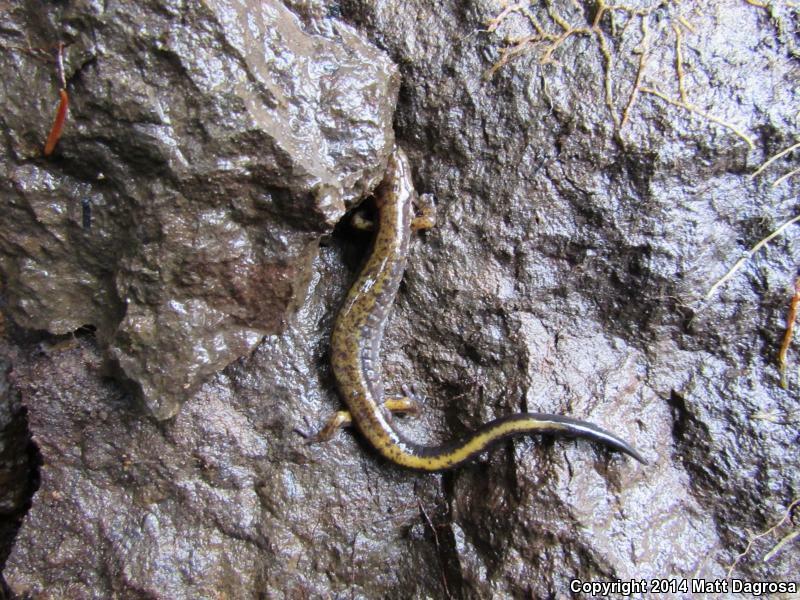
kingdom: Animalia
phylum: Chordata
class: Amphibia
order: Caudata
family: Plethodontidae
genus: Plethodon
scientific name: Plethodon dunni
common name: Dunn's salamander
